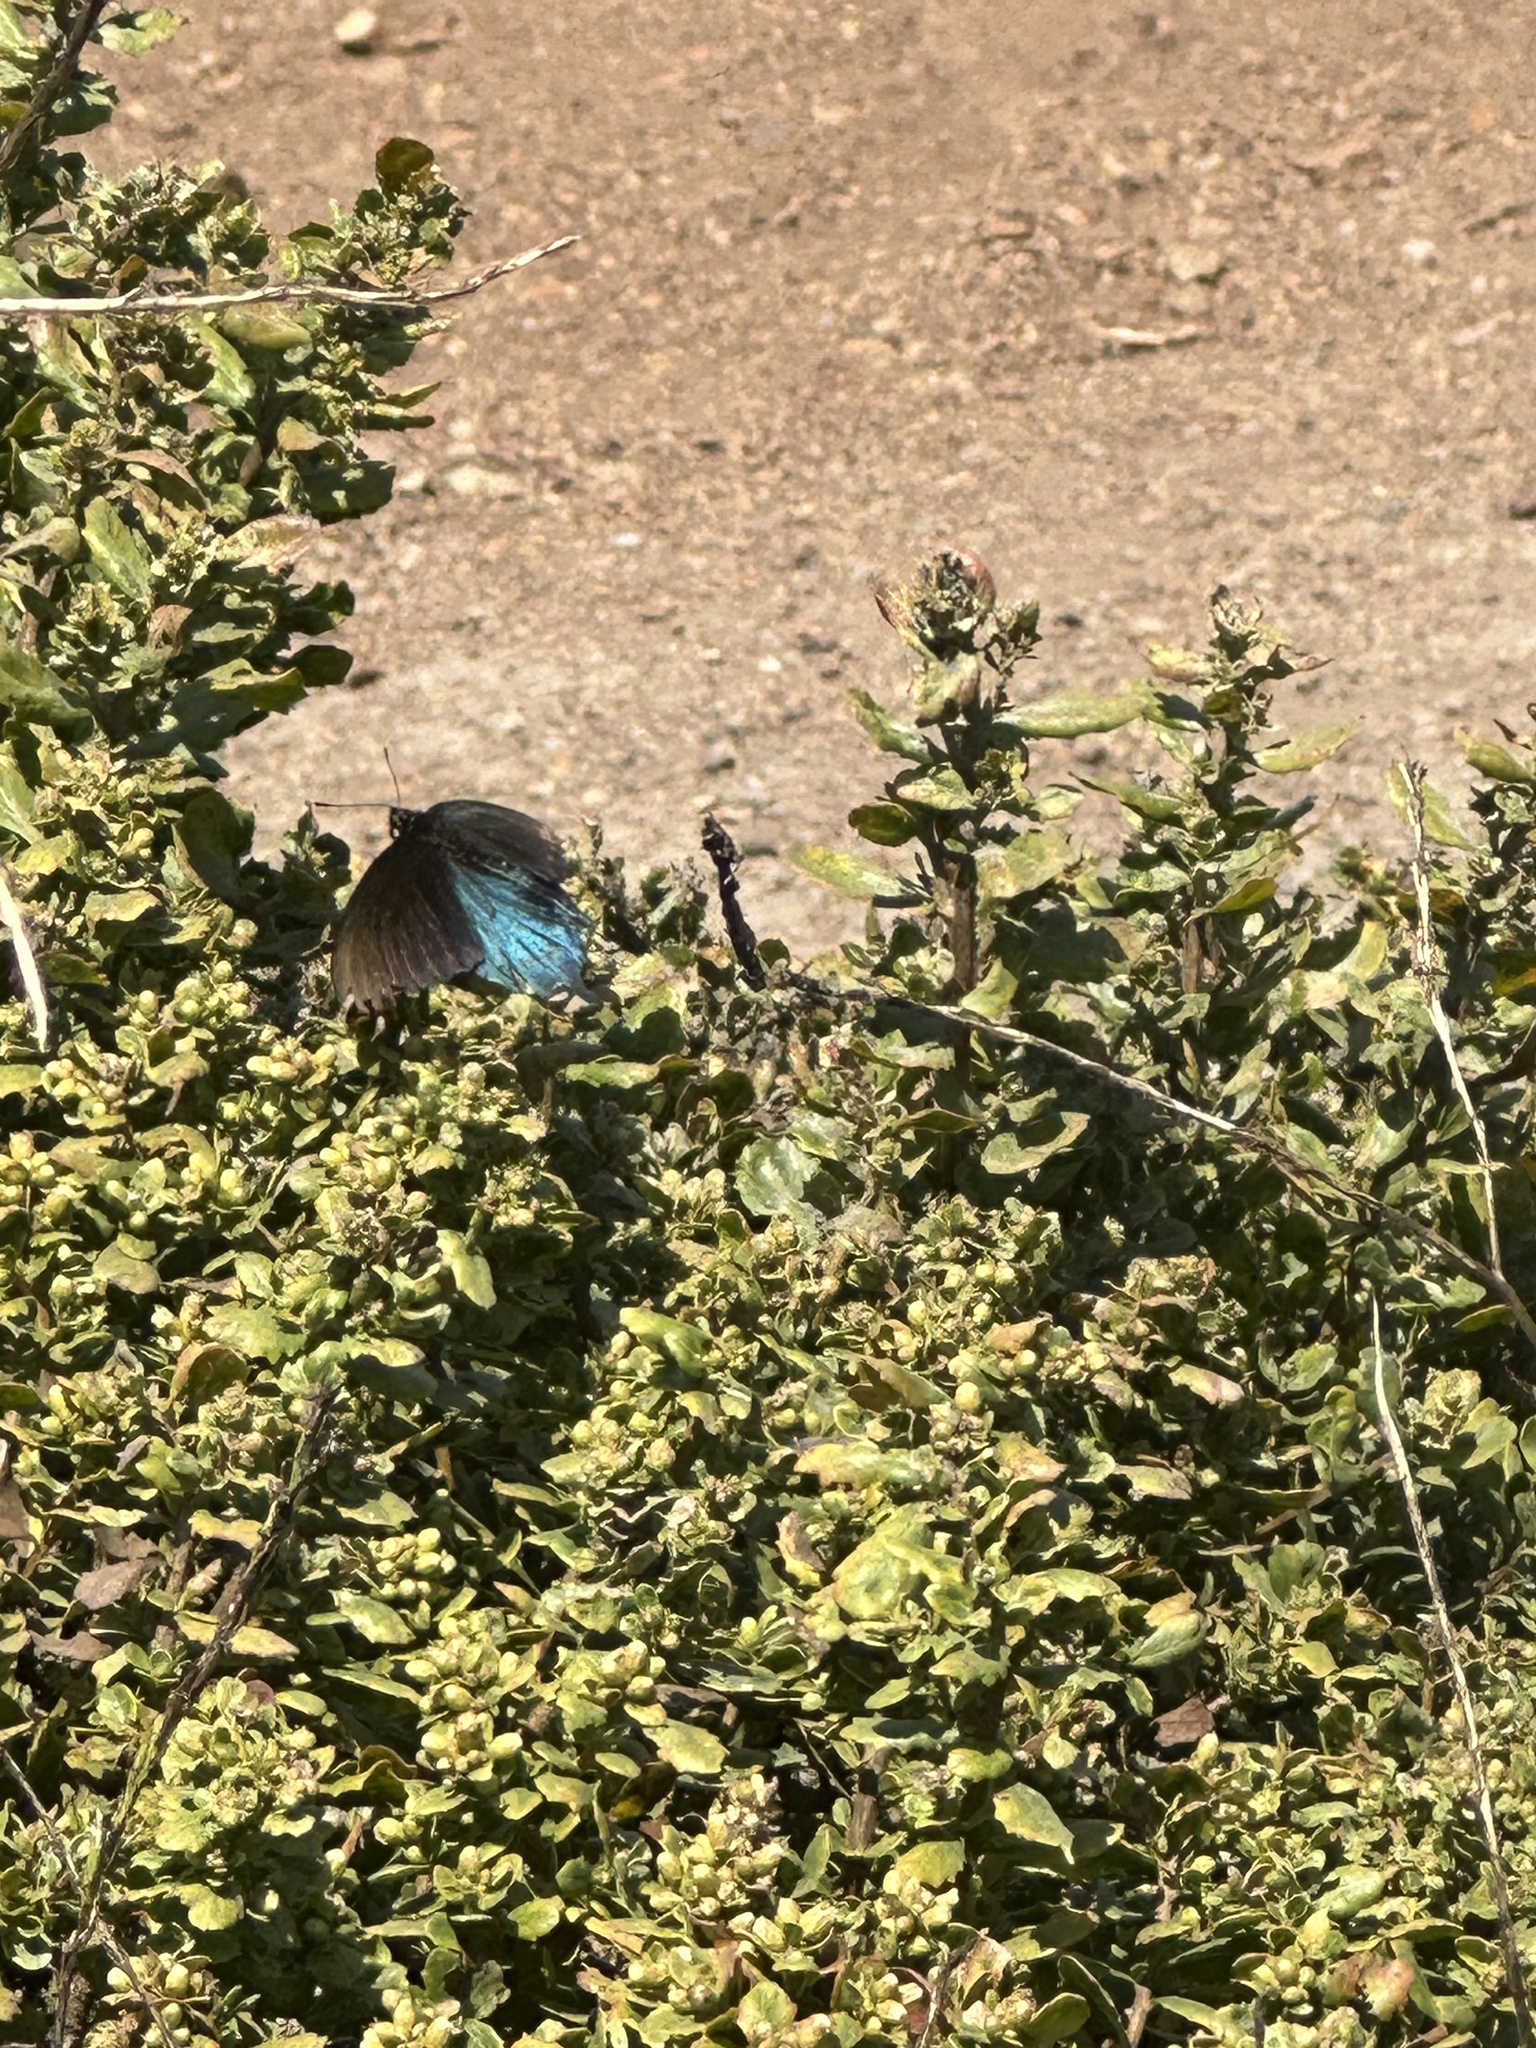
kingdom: Animalia
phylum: Arthropoda
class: Insecta
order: Lepidoptera
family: Papilionidae
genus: Battus
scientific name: Battus philenor
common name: Pipevine swallowtail
